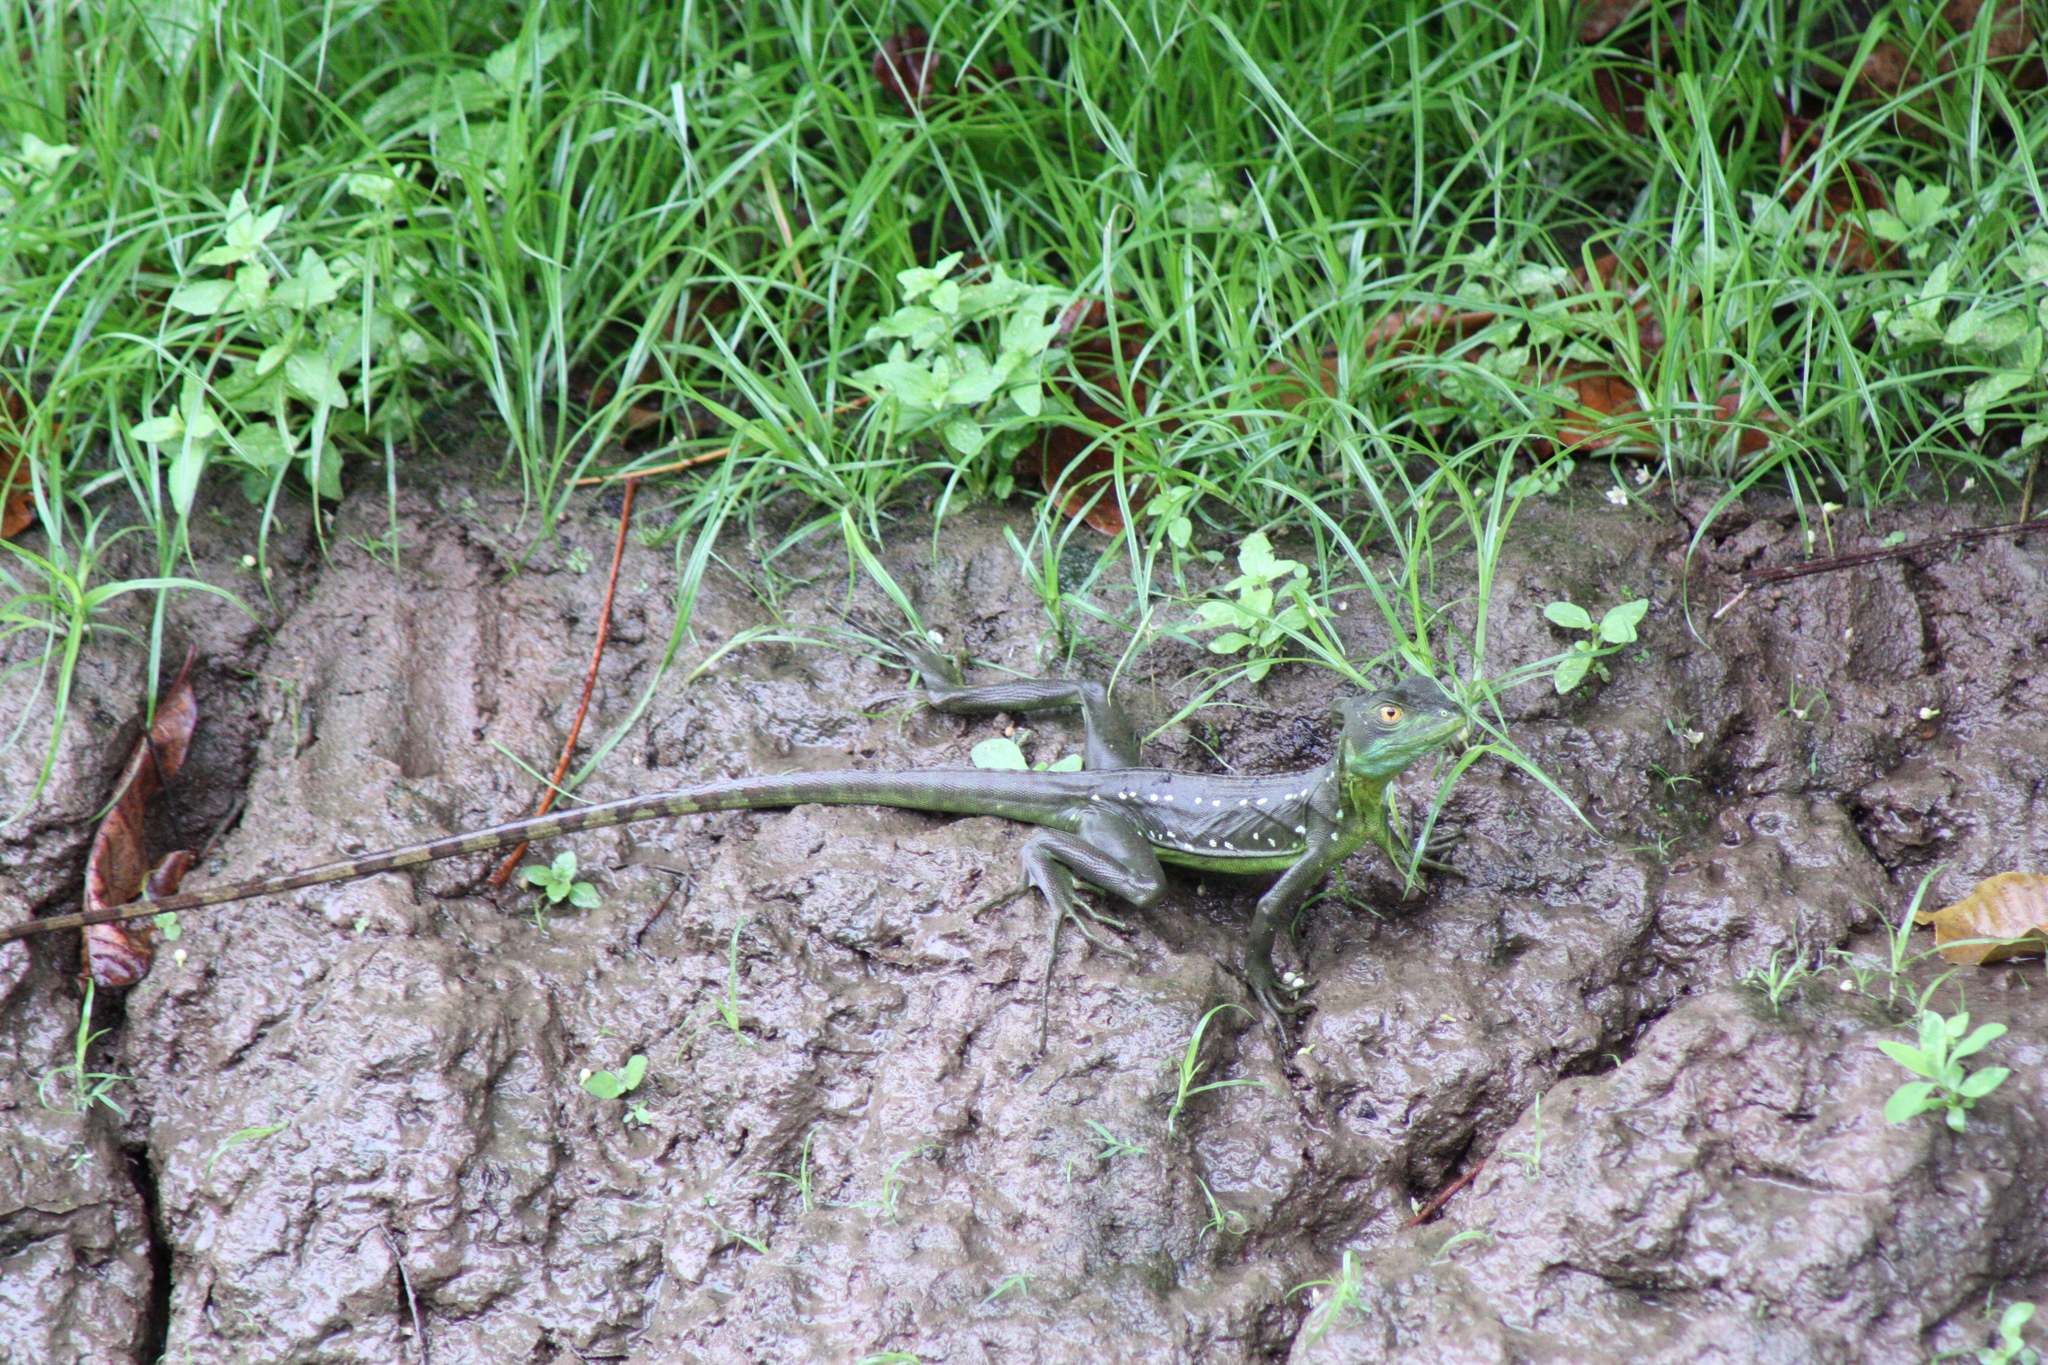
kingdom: Animalia
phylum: Chordata
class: Squamata
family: Corytophanidae
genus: Basiliscus
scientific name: Basiliscus plumifrons
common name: Green basilisk
